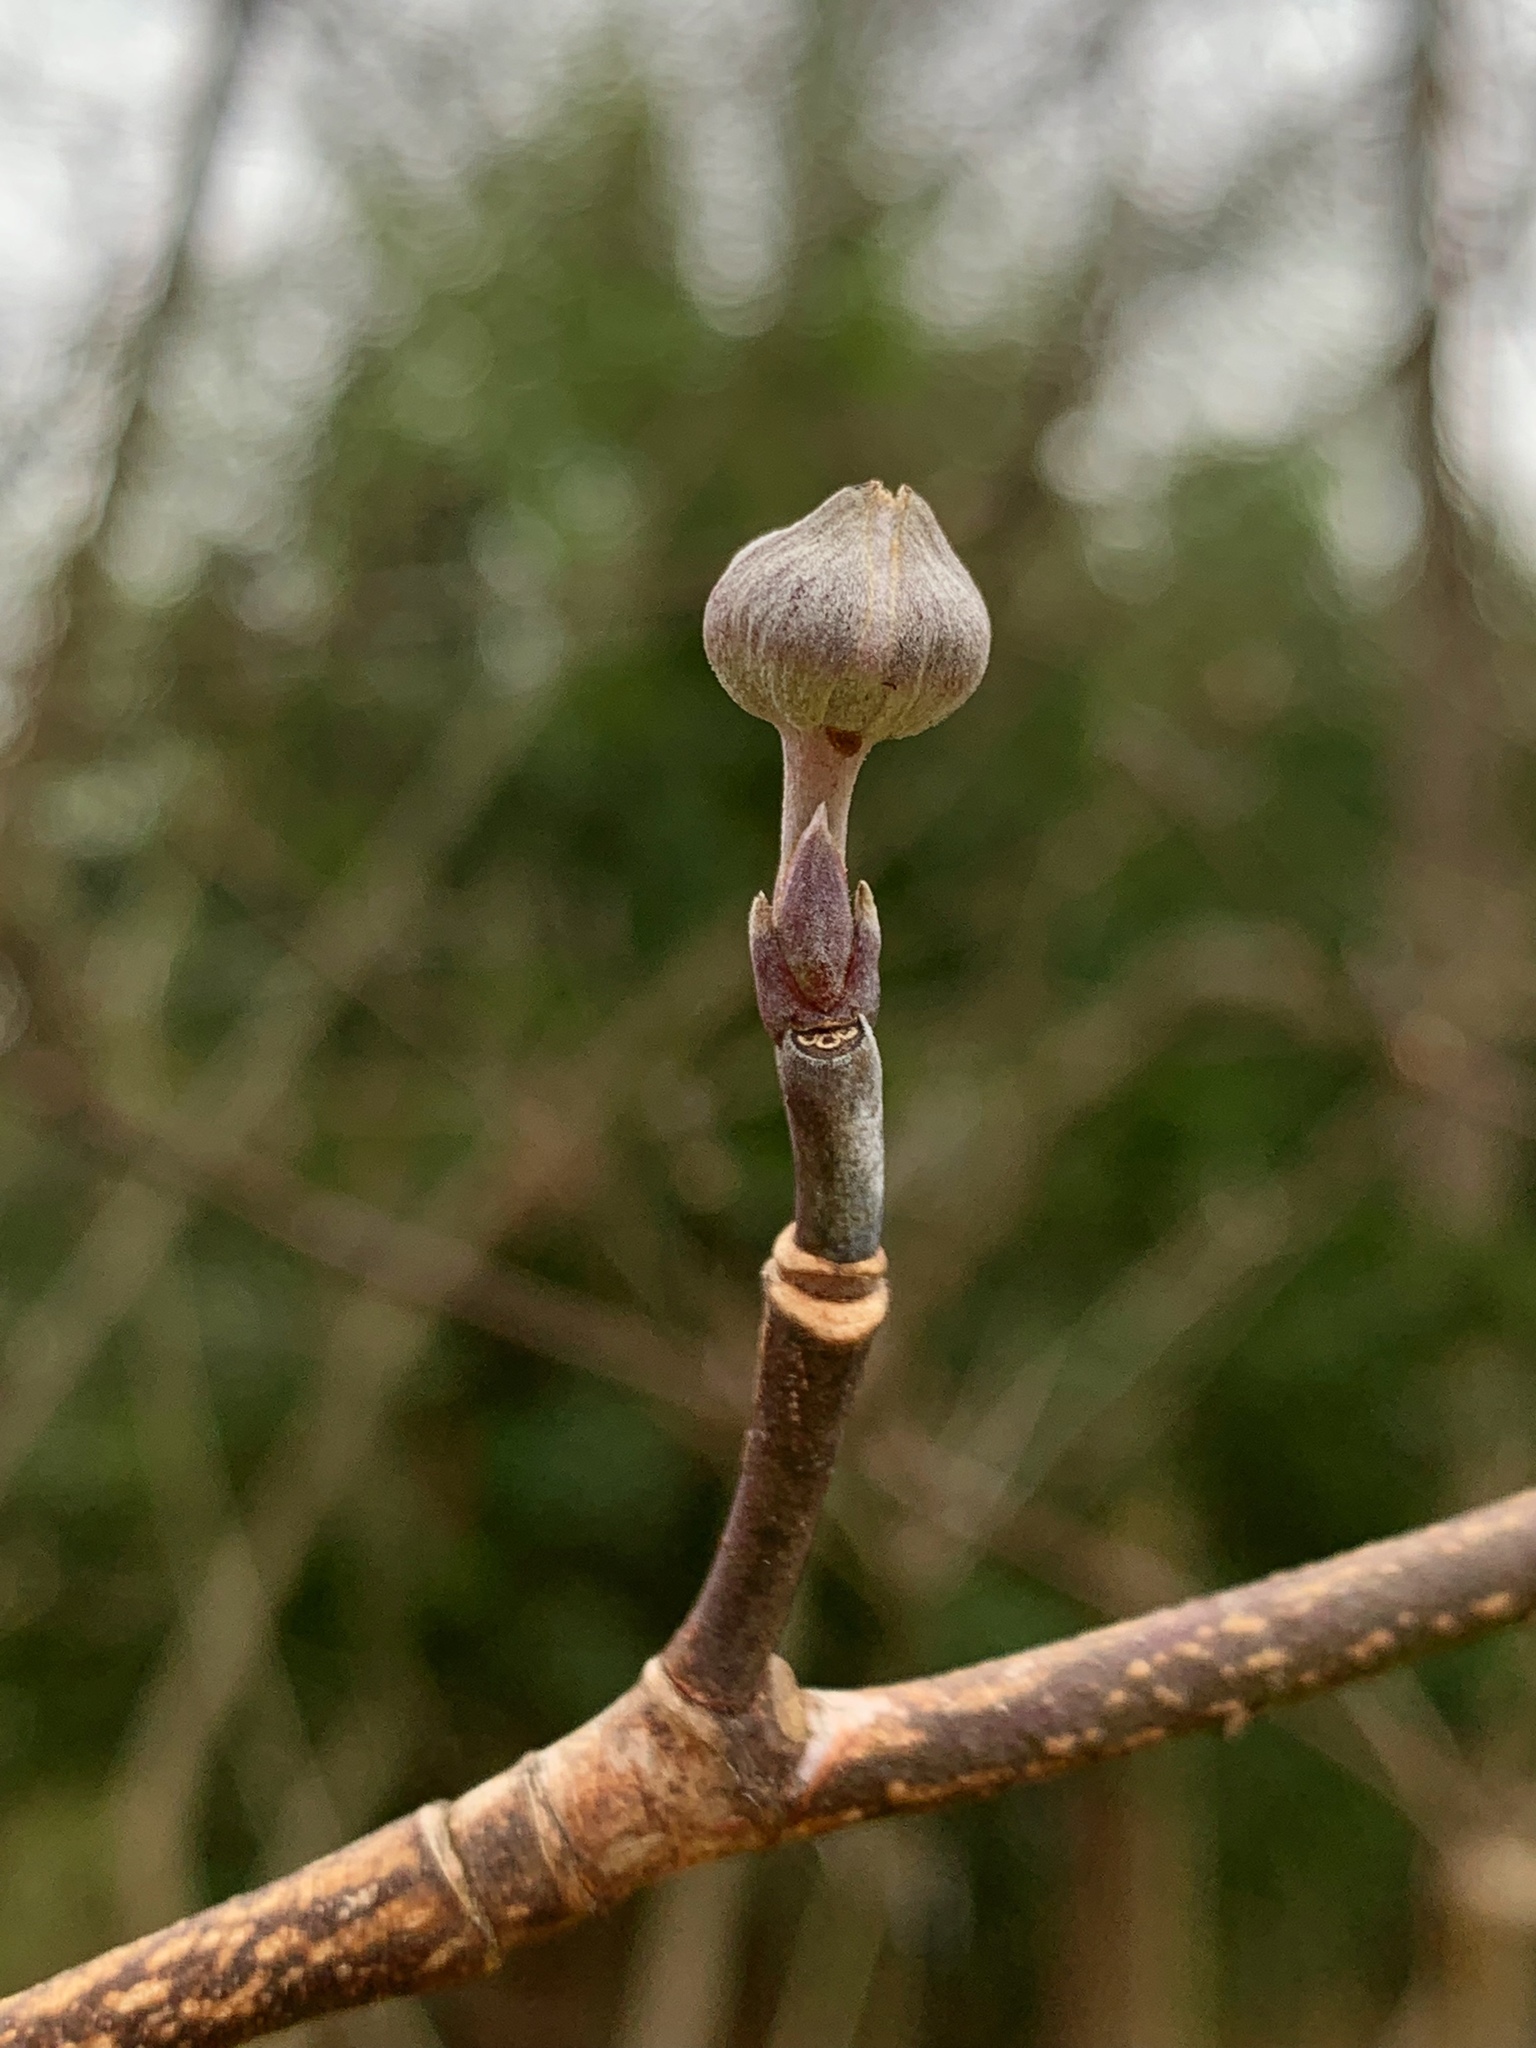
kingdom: Plantae
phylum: Tracheophyta
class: Magnoliopsida
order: Cornales
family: Cornaceae
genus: Cornus
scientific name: Cornus florida
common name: Flowering dogwood
